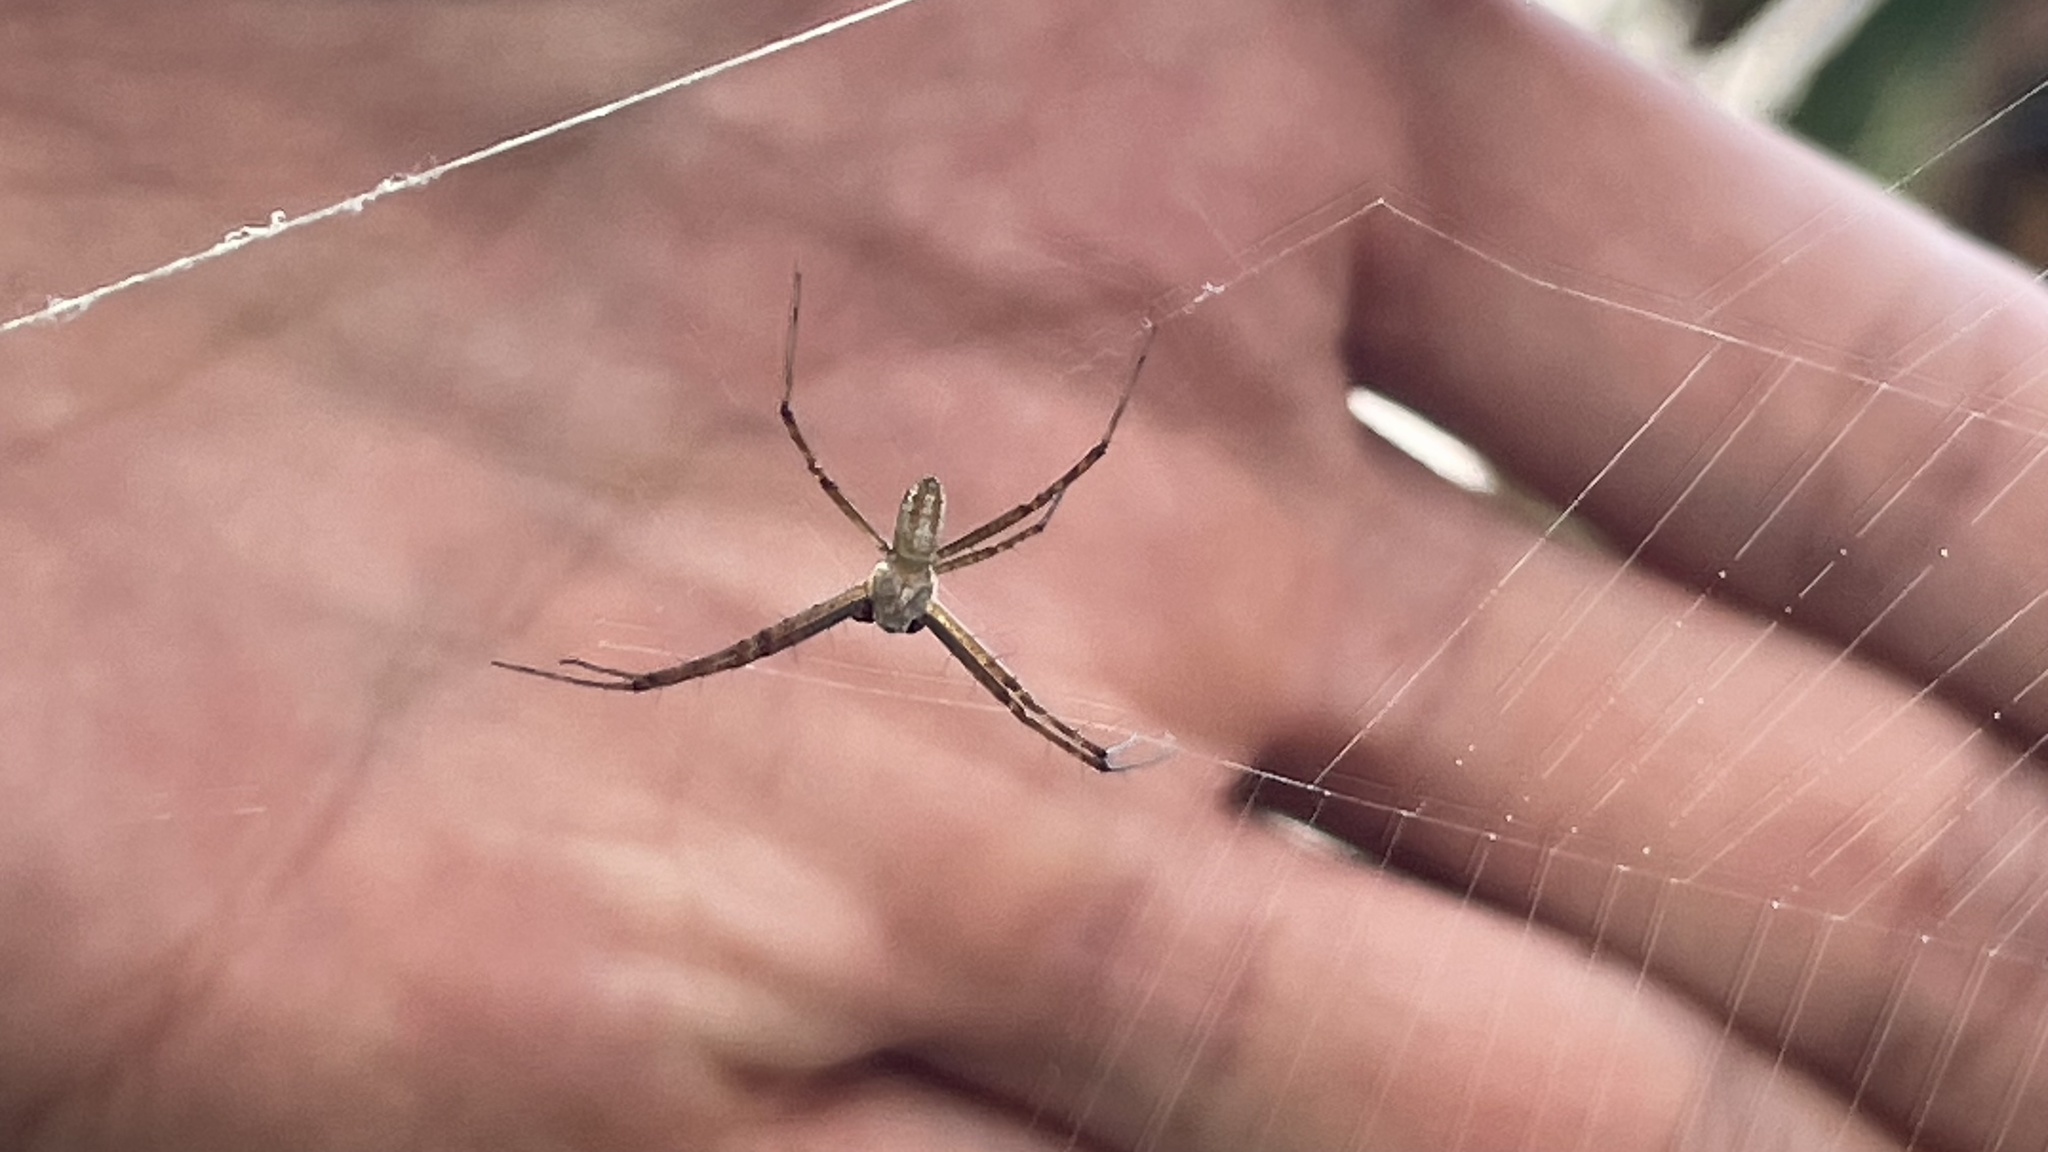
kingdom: Animalia
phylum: Arthropoda
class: Arachnida
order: Araneae
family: Araneidae
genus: Argiope
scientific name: Argiope trifasciata
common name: Banded garden spider
